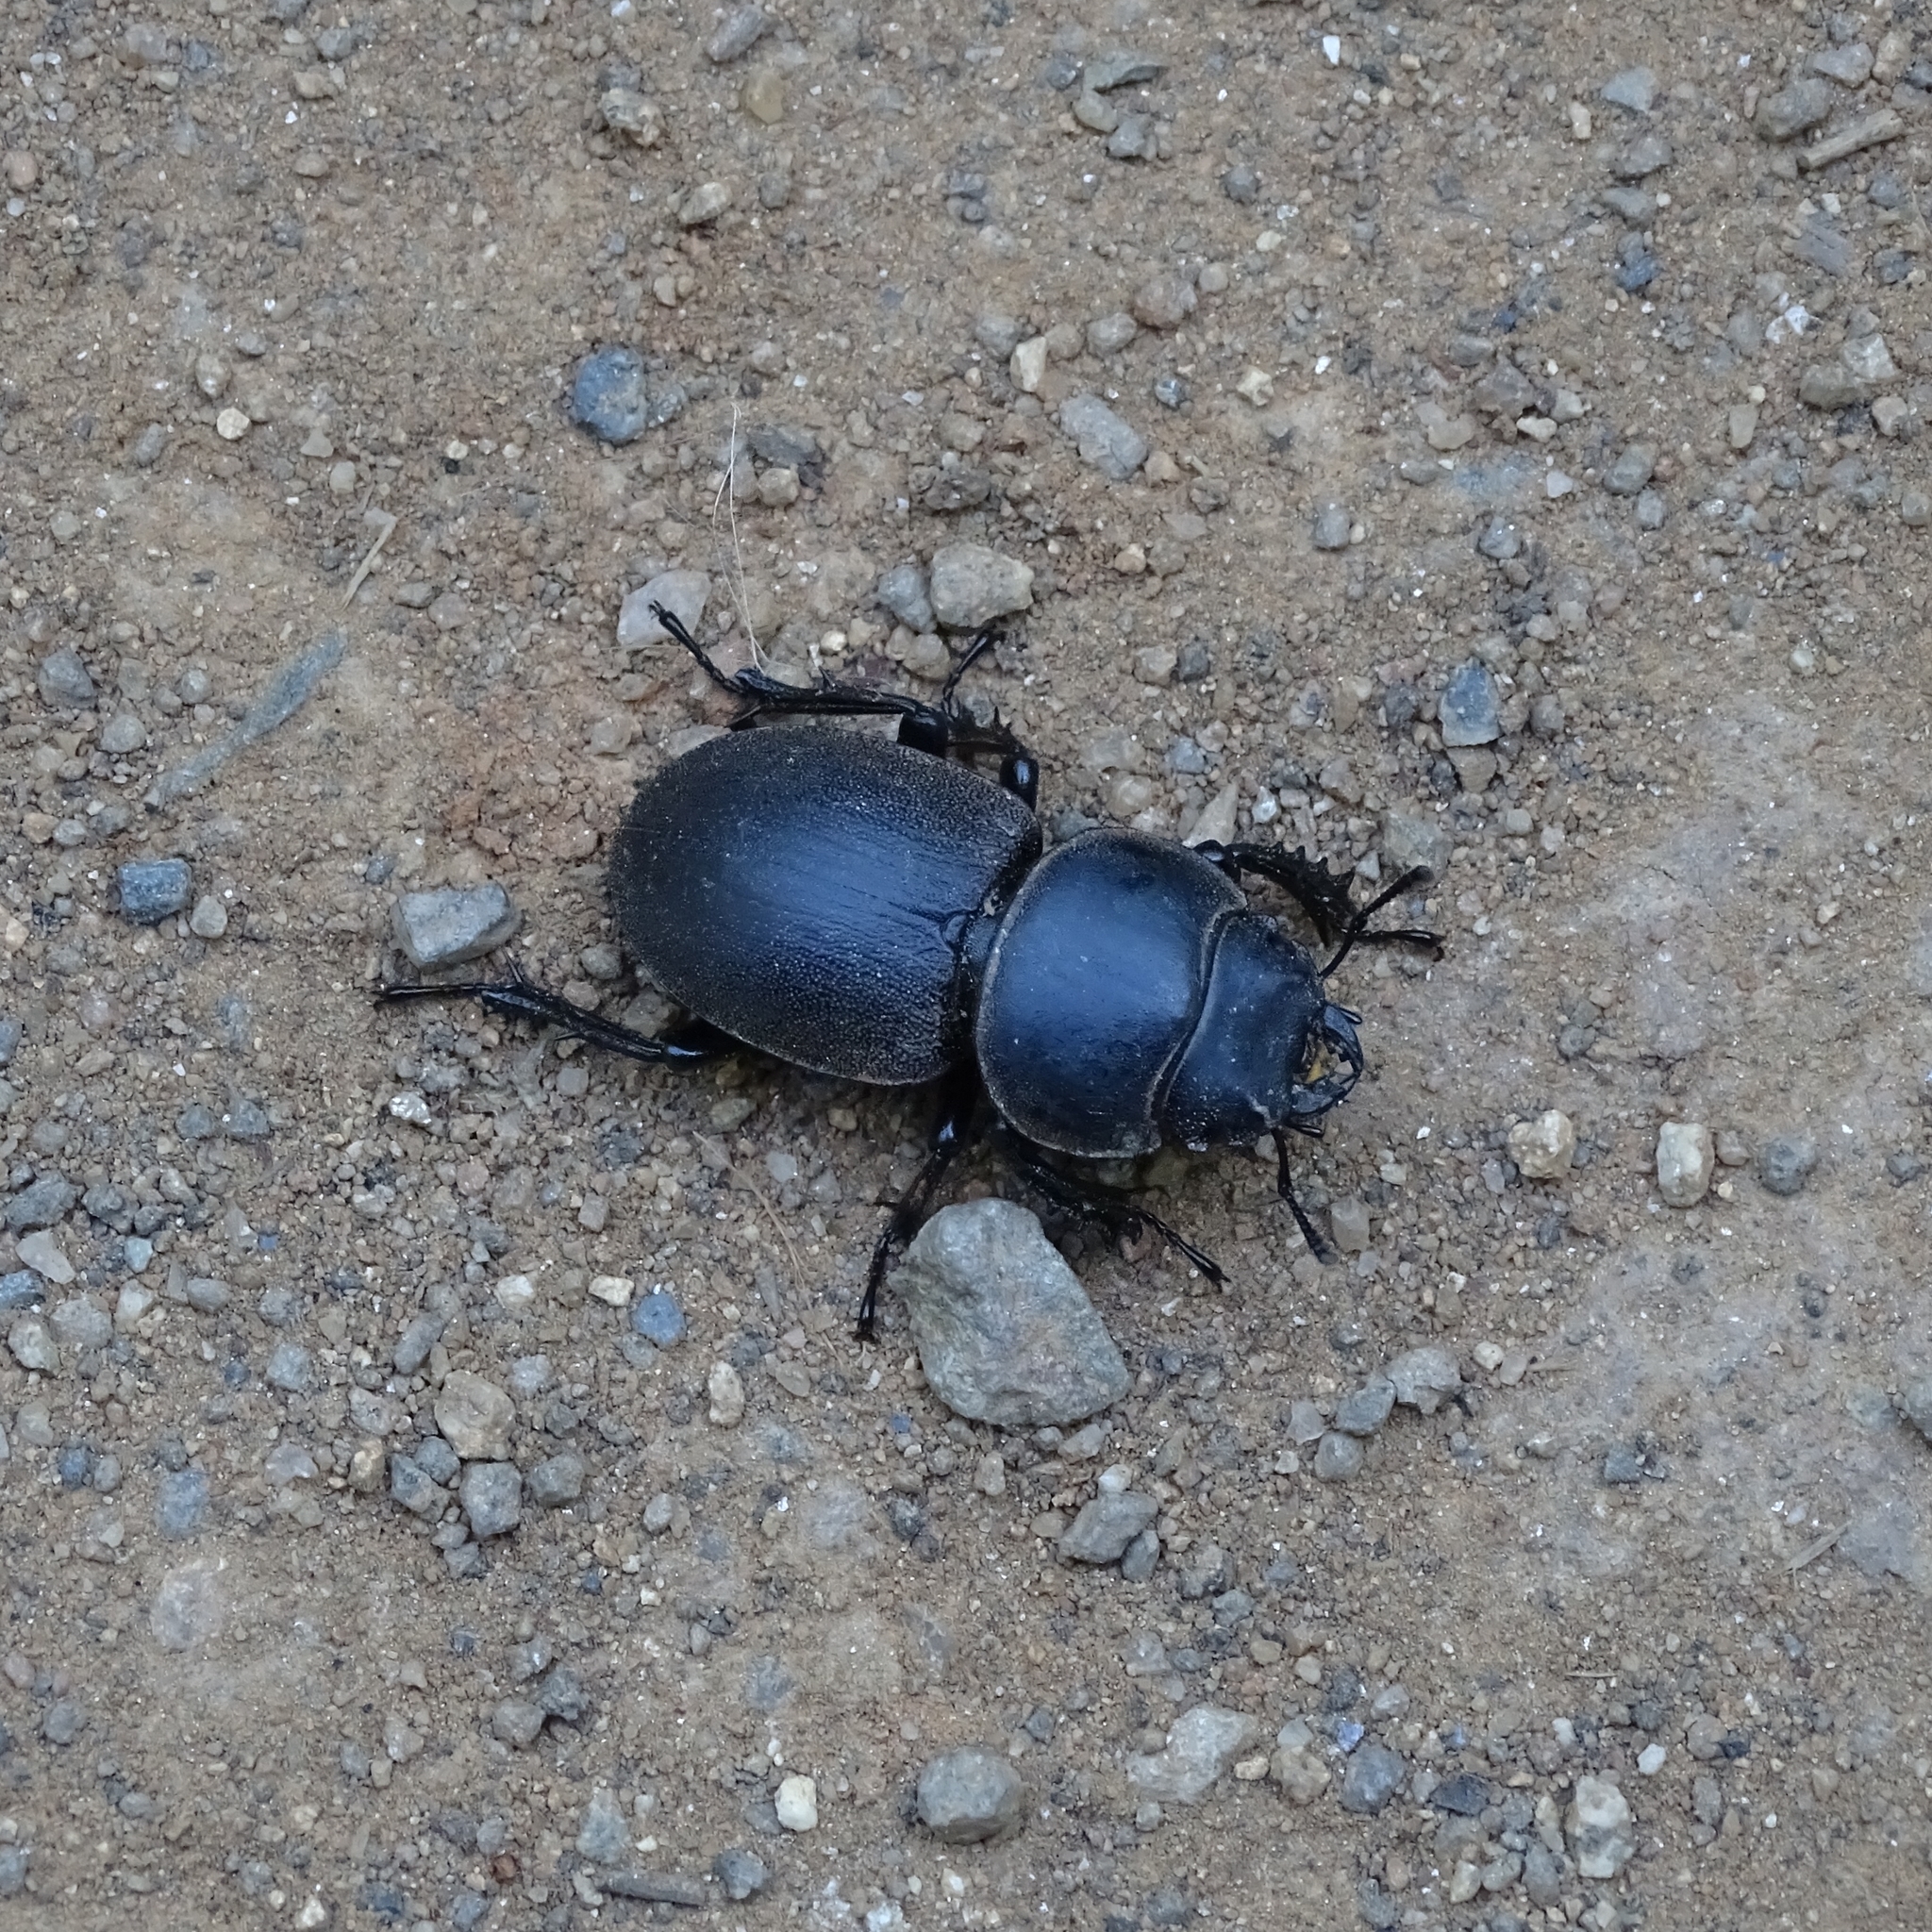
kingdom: Animalia
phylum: Arthropoda
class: Insecta
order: Coleoptera
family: Lucanidae
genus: Apterodorcus
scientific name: Apterodorcus bacchus
